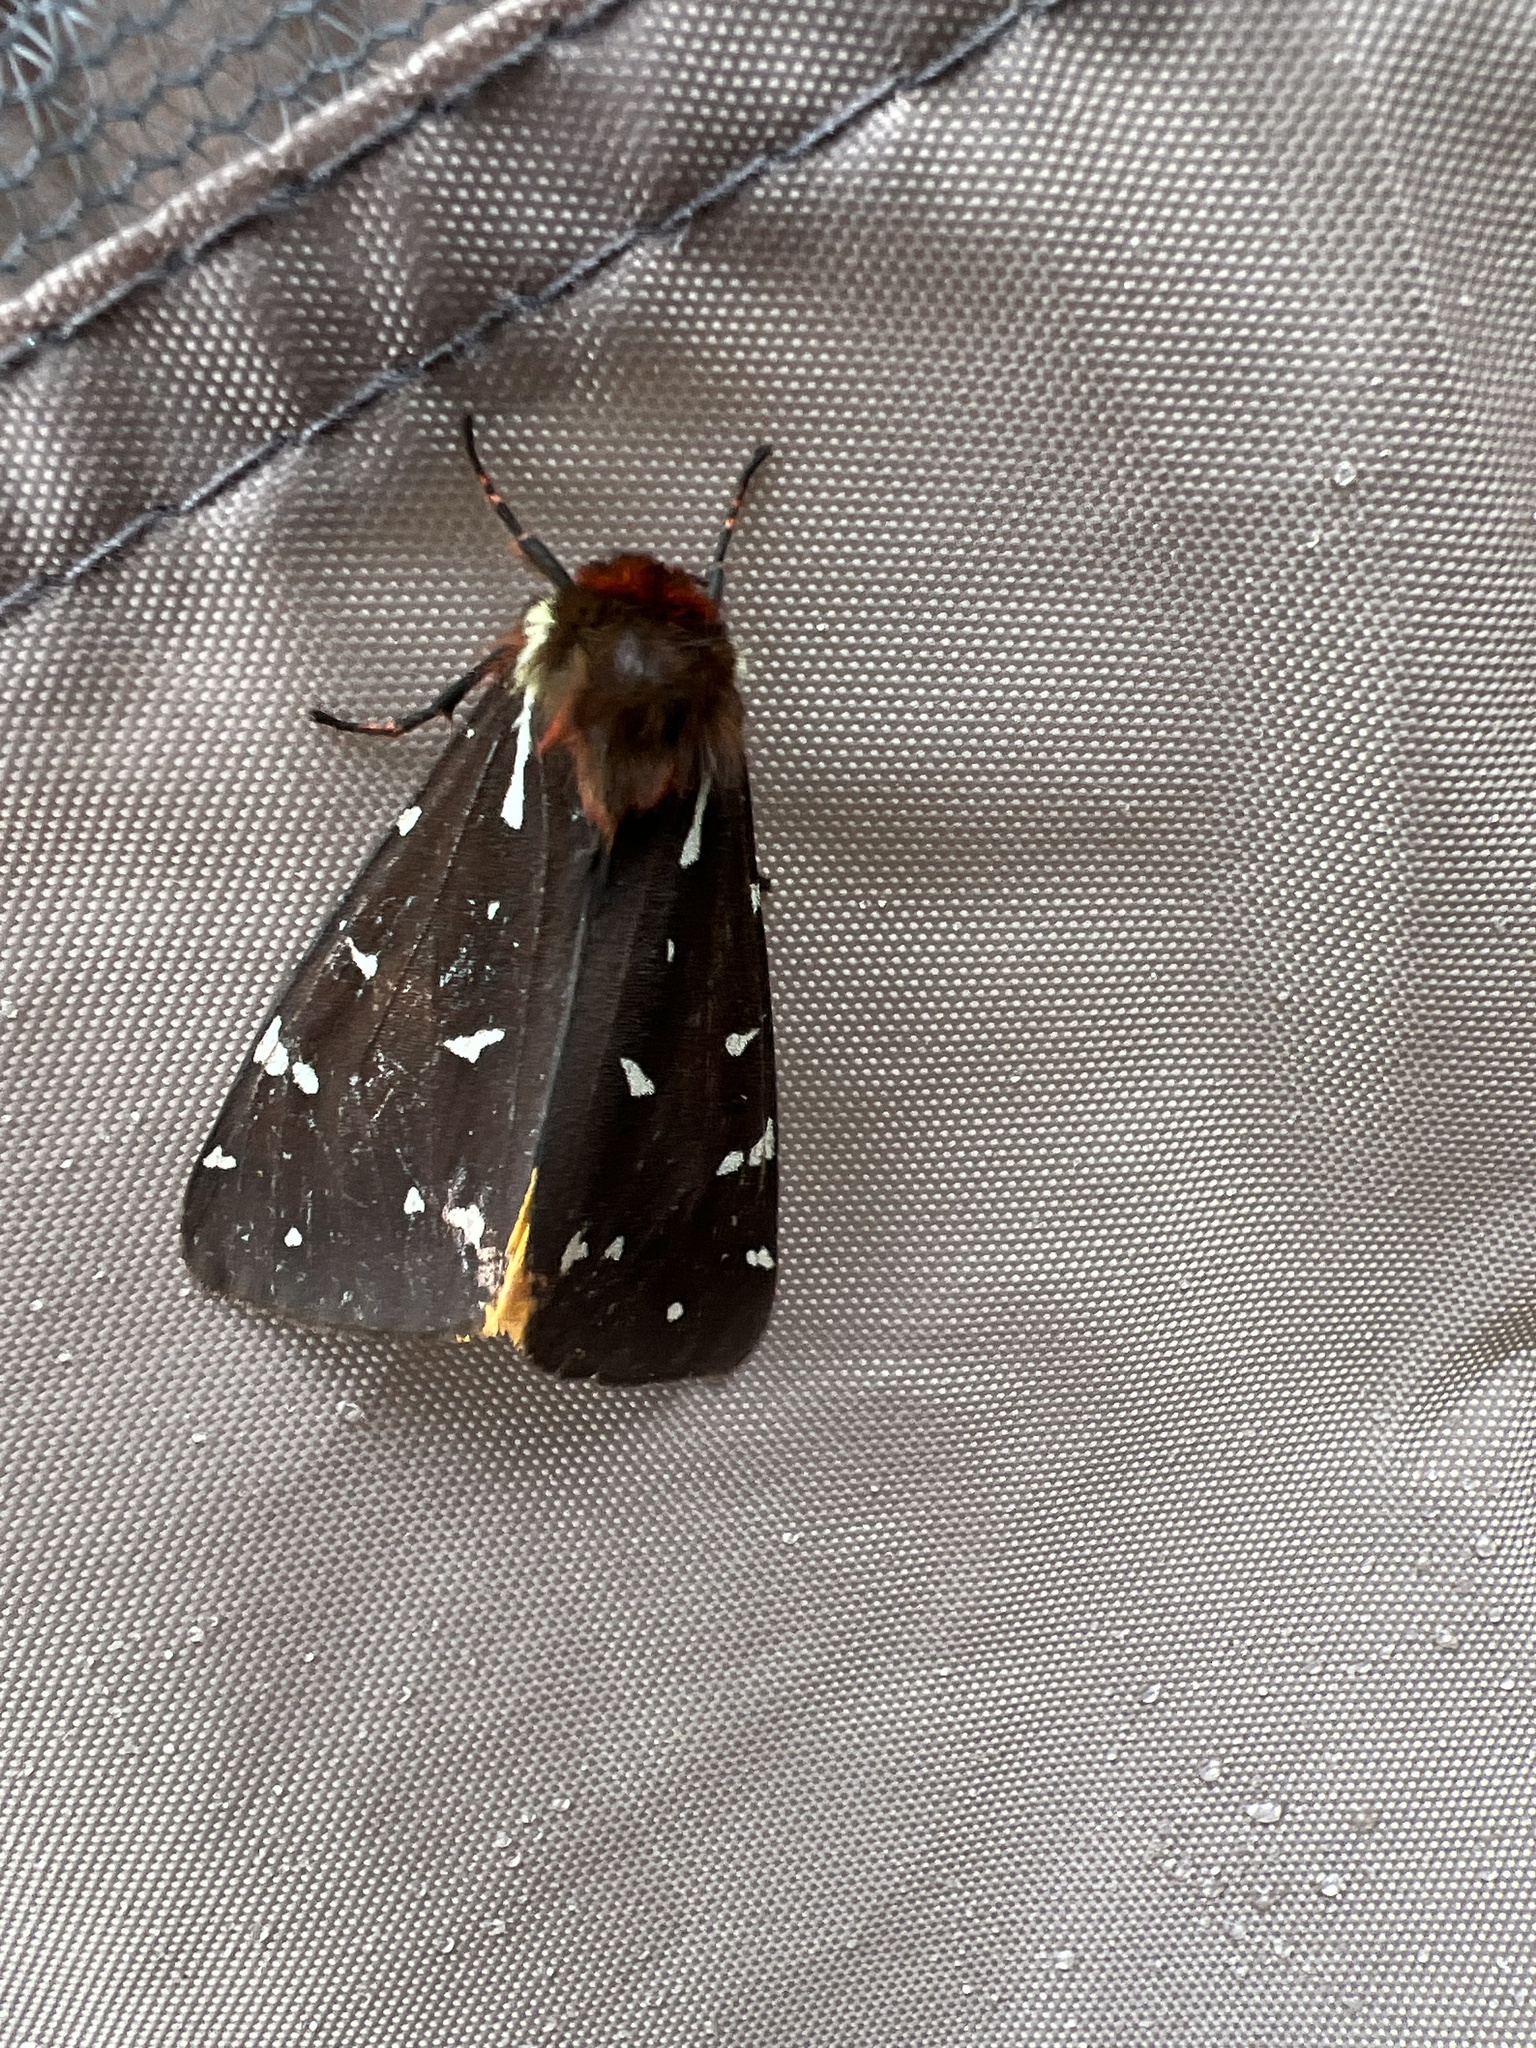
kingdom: Animalia
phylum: Arthropoda
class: Insecta
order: Lepidoptera
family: Erebidae
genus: Arctia
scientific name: Arctia parthenos
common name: St. lawrence tiger moth
